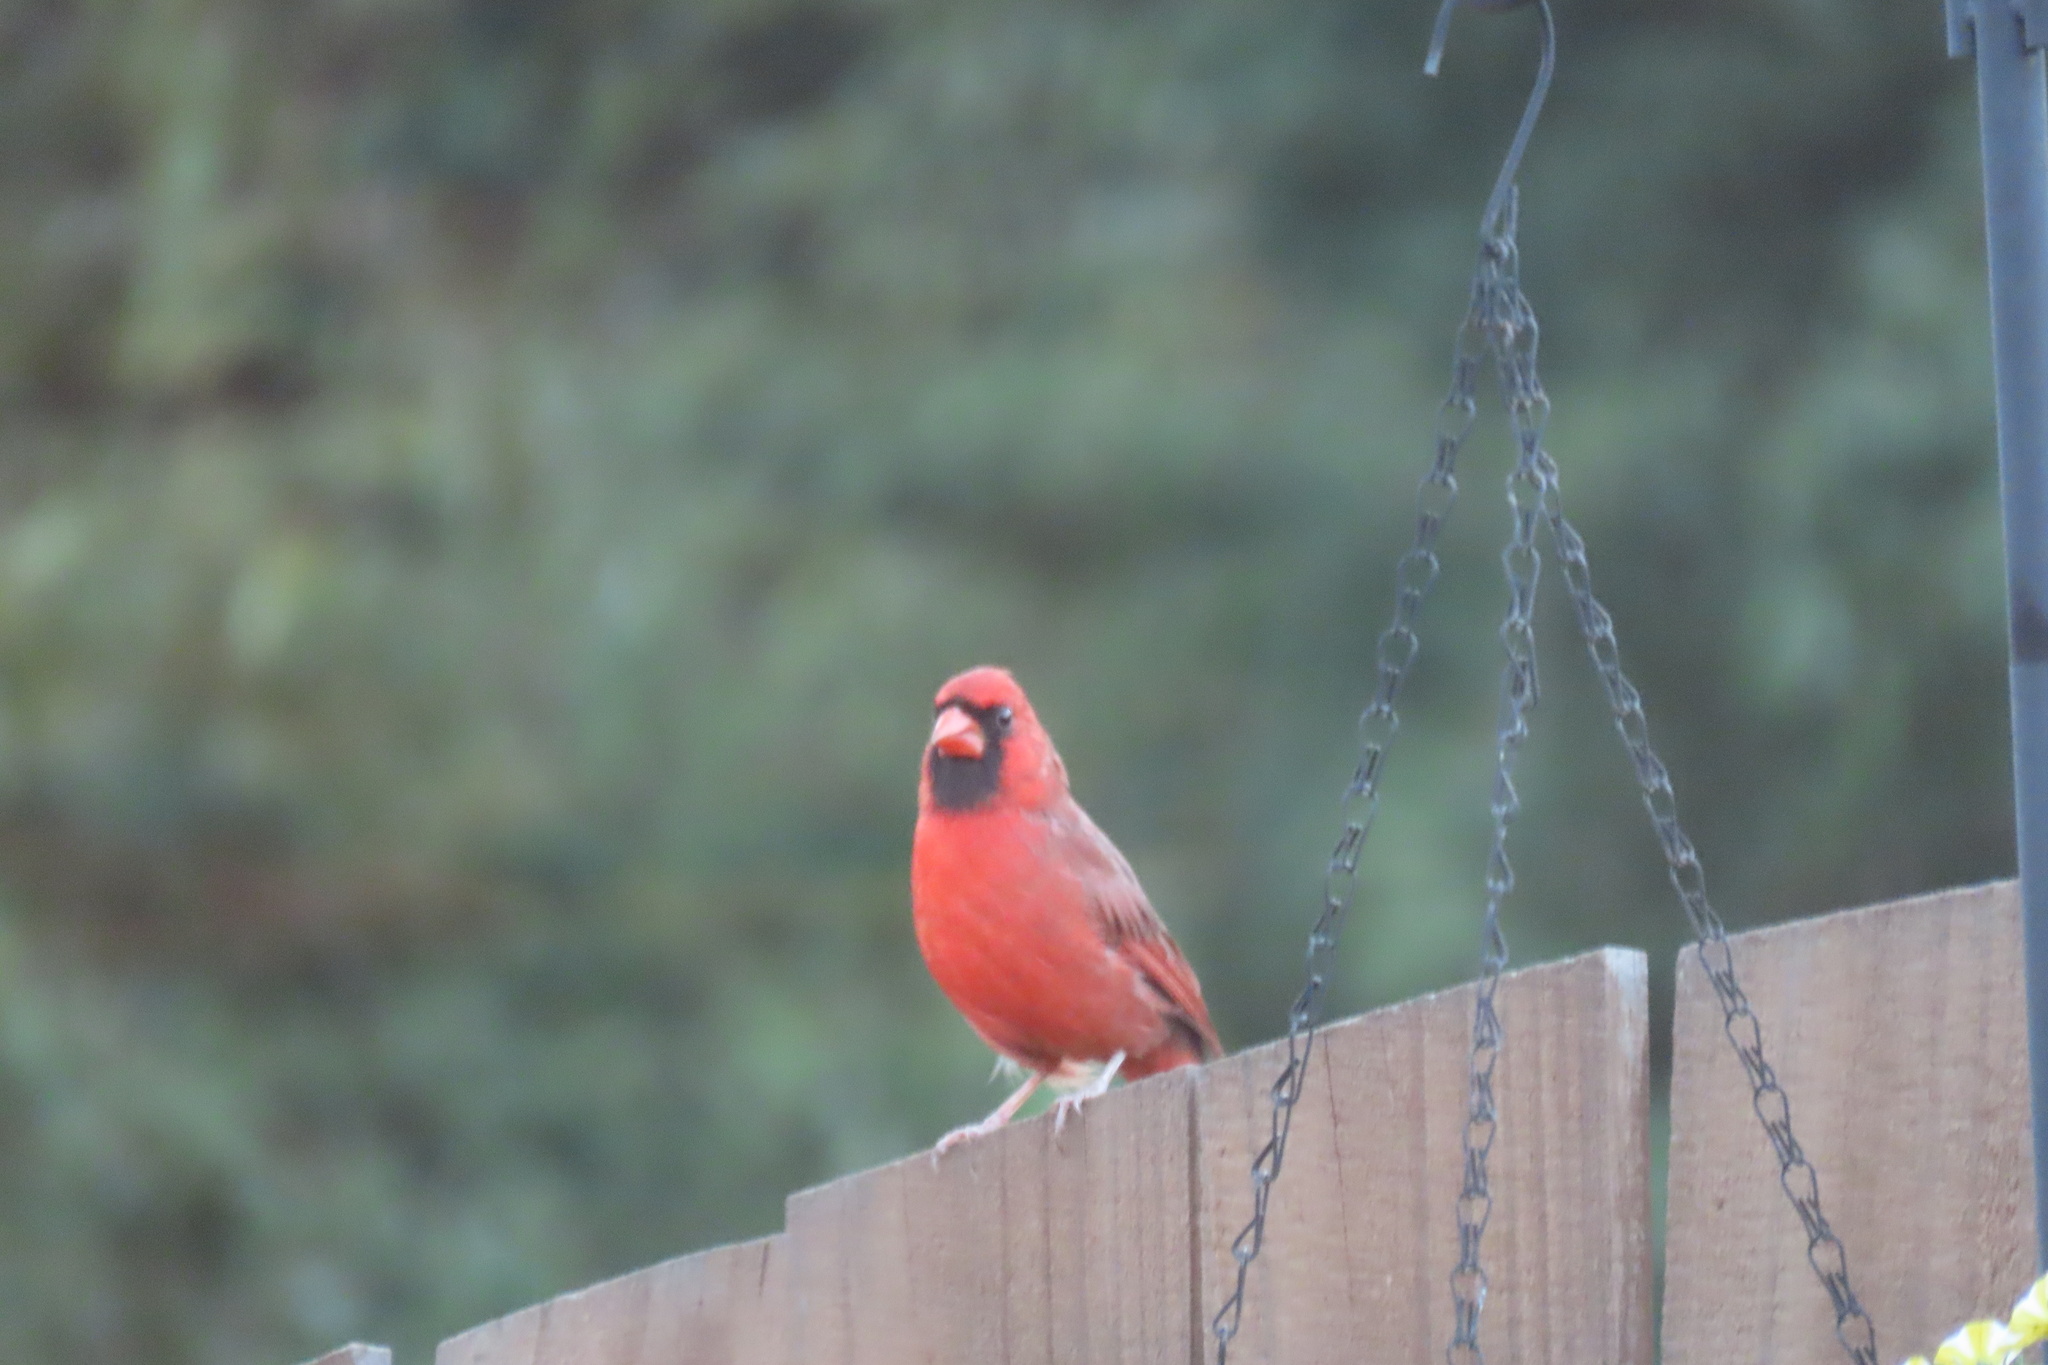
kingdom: Animalia
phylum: Chordata
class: Aves
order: Passeriformes
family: Cardinalidae
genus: Cardinalis
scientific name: Cardinalis cardinalis
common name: Northern cardinal
